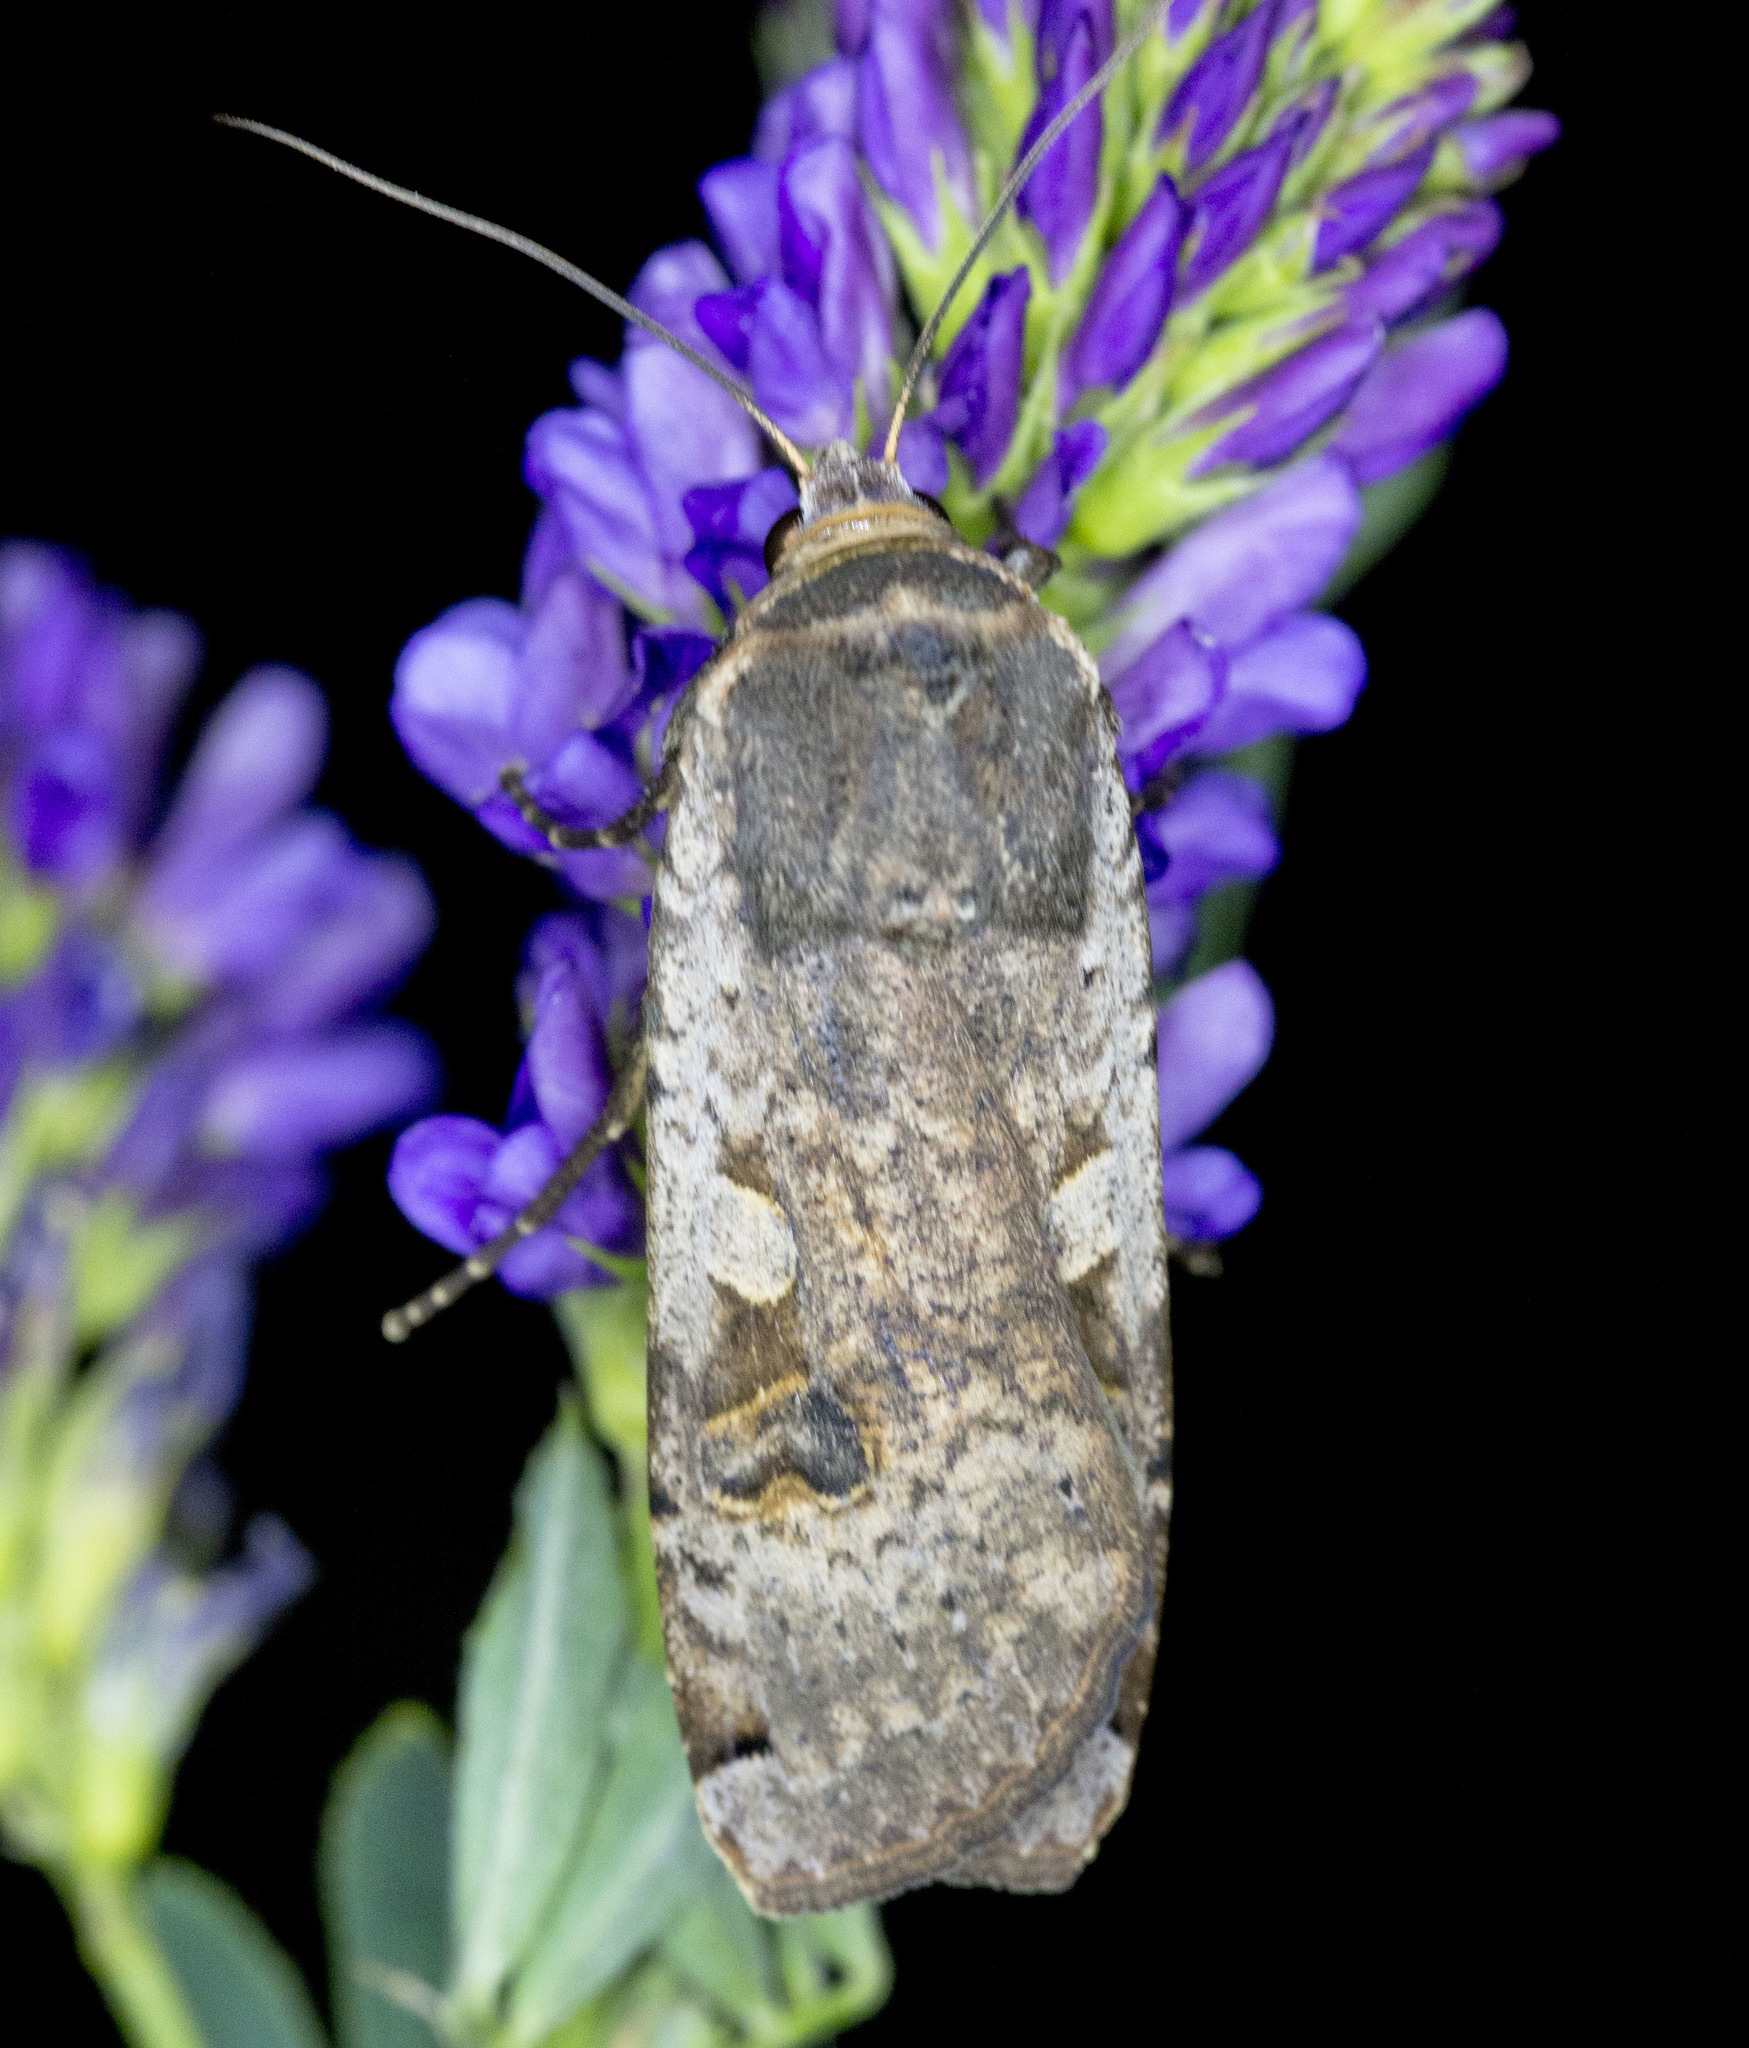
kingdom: Animalia
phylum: Arthropoda
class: Insecta
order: Lepidoptera
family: Noctuidae
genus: Noctua
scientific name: Noctua pronuba
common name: Large yellow underwing
